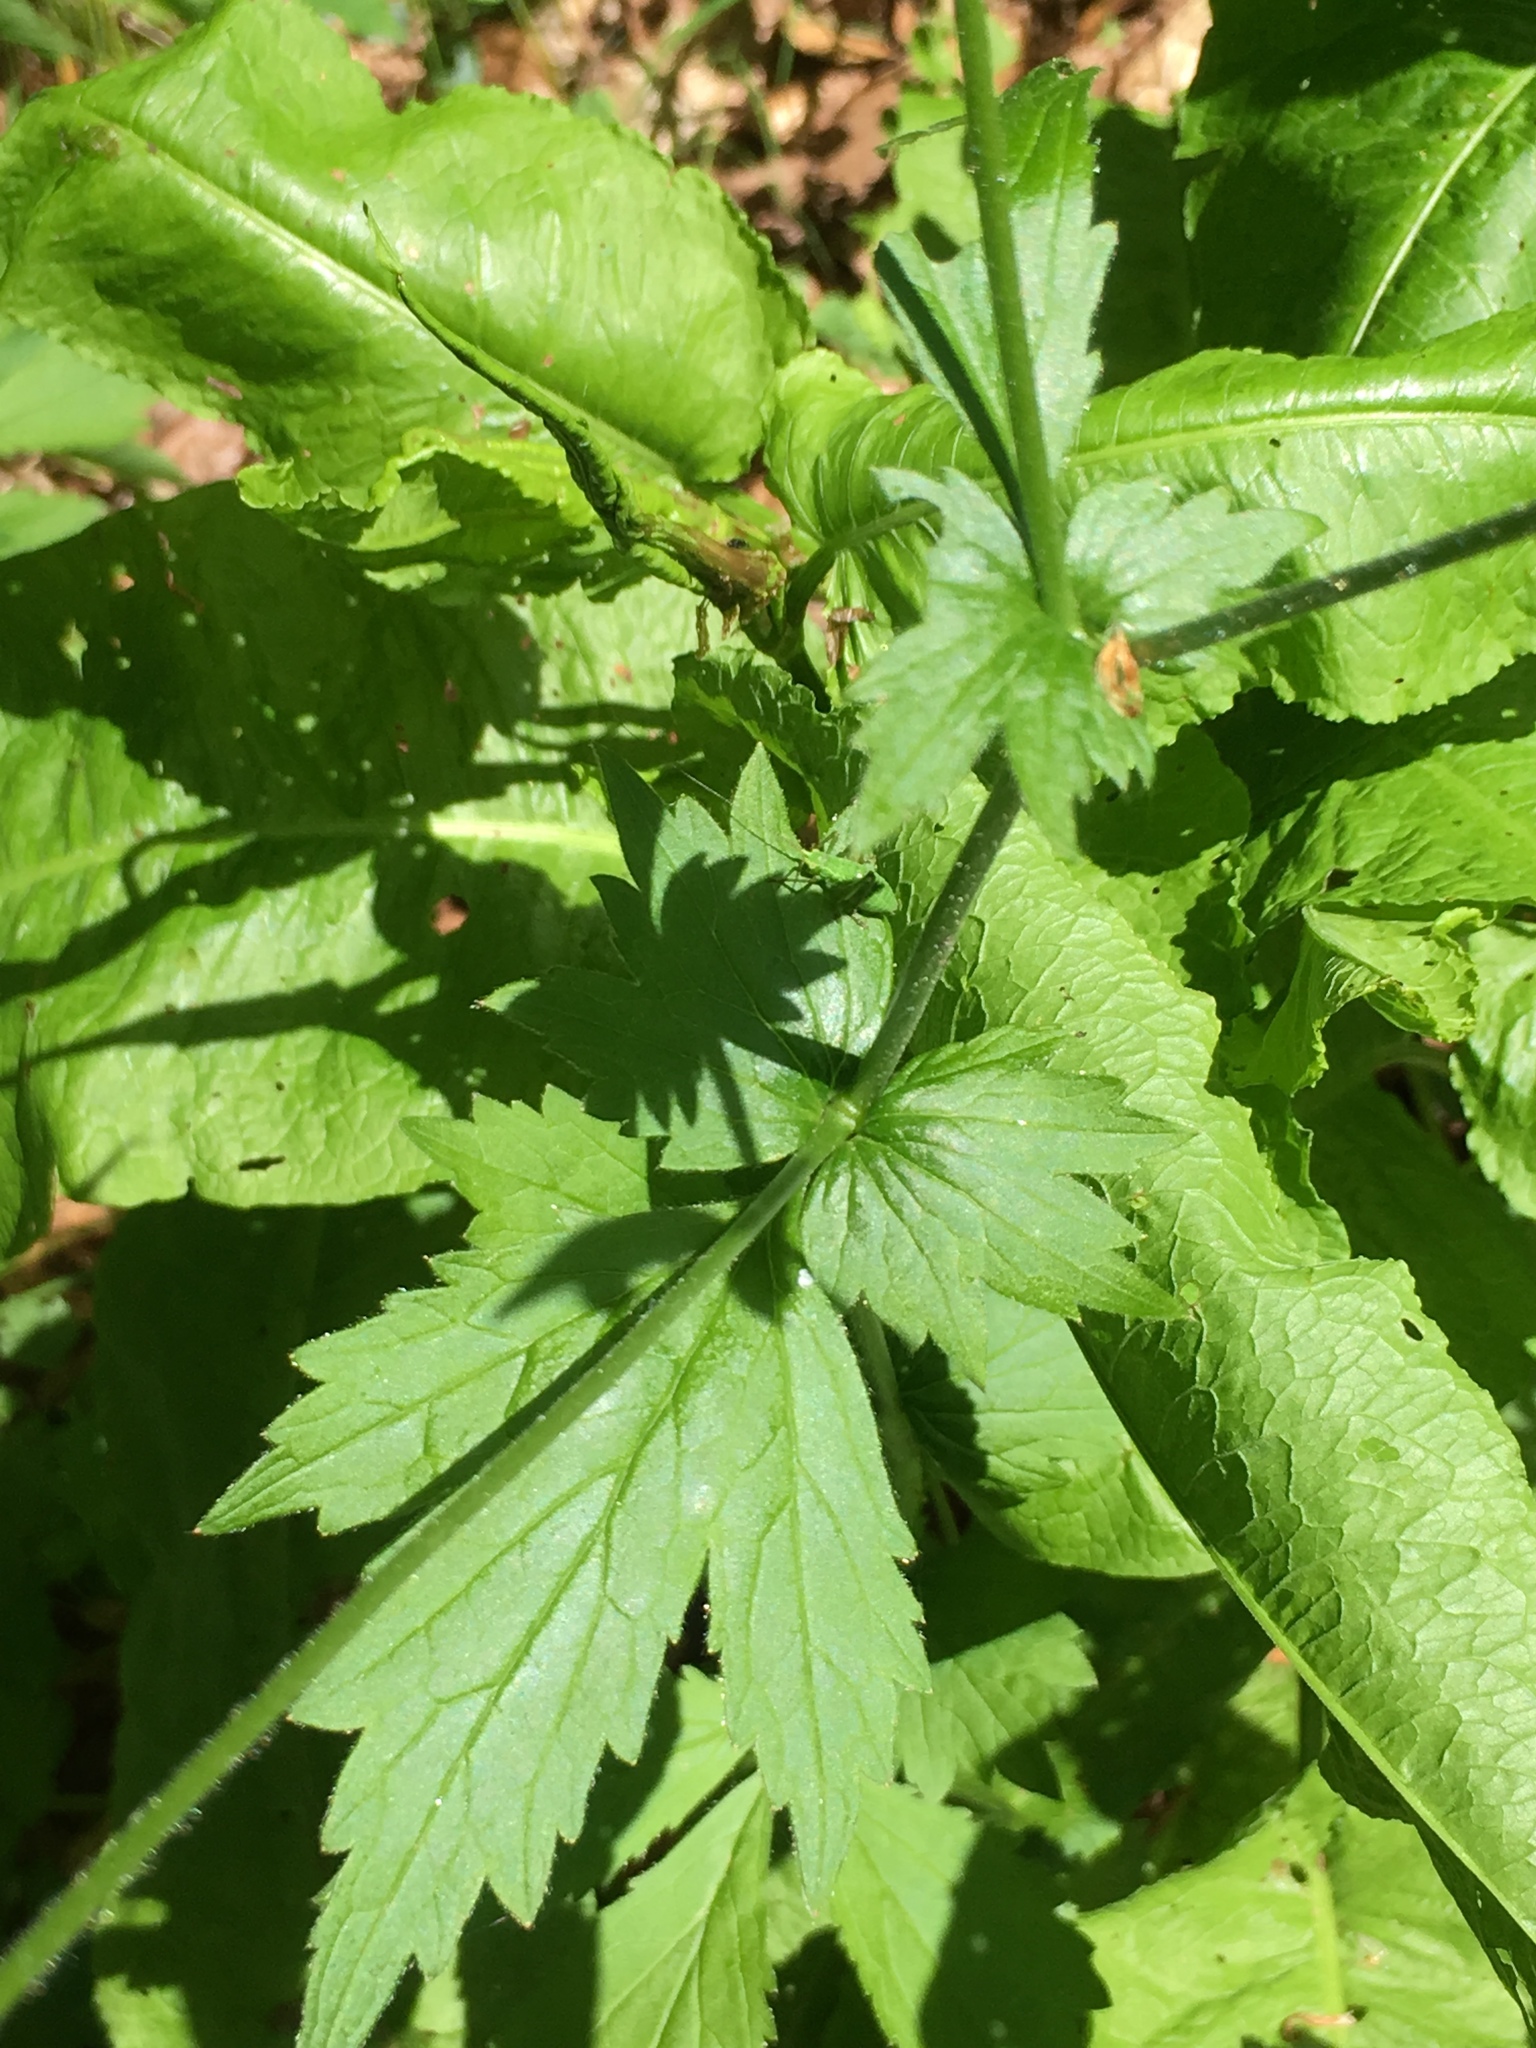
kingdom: Plantae
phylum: Tracheophyta
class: Magnoliopsida
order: Rosales
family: Rosaceae
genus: Geum
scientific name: Geum urbanum
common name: Wood avens
